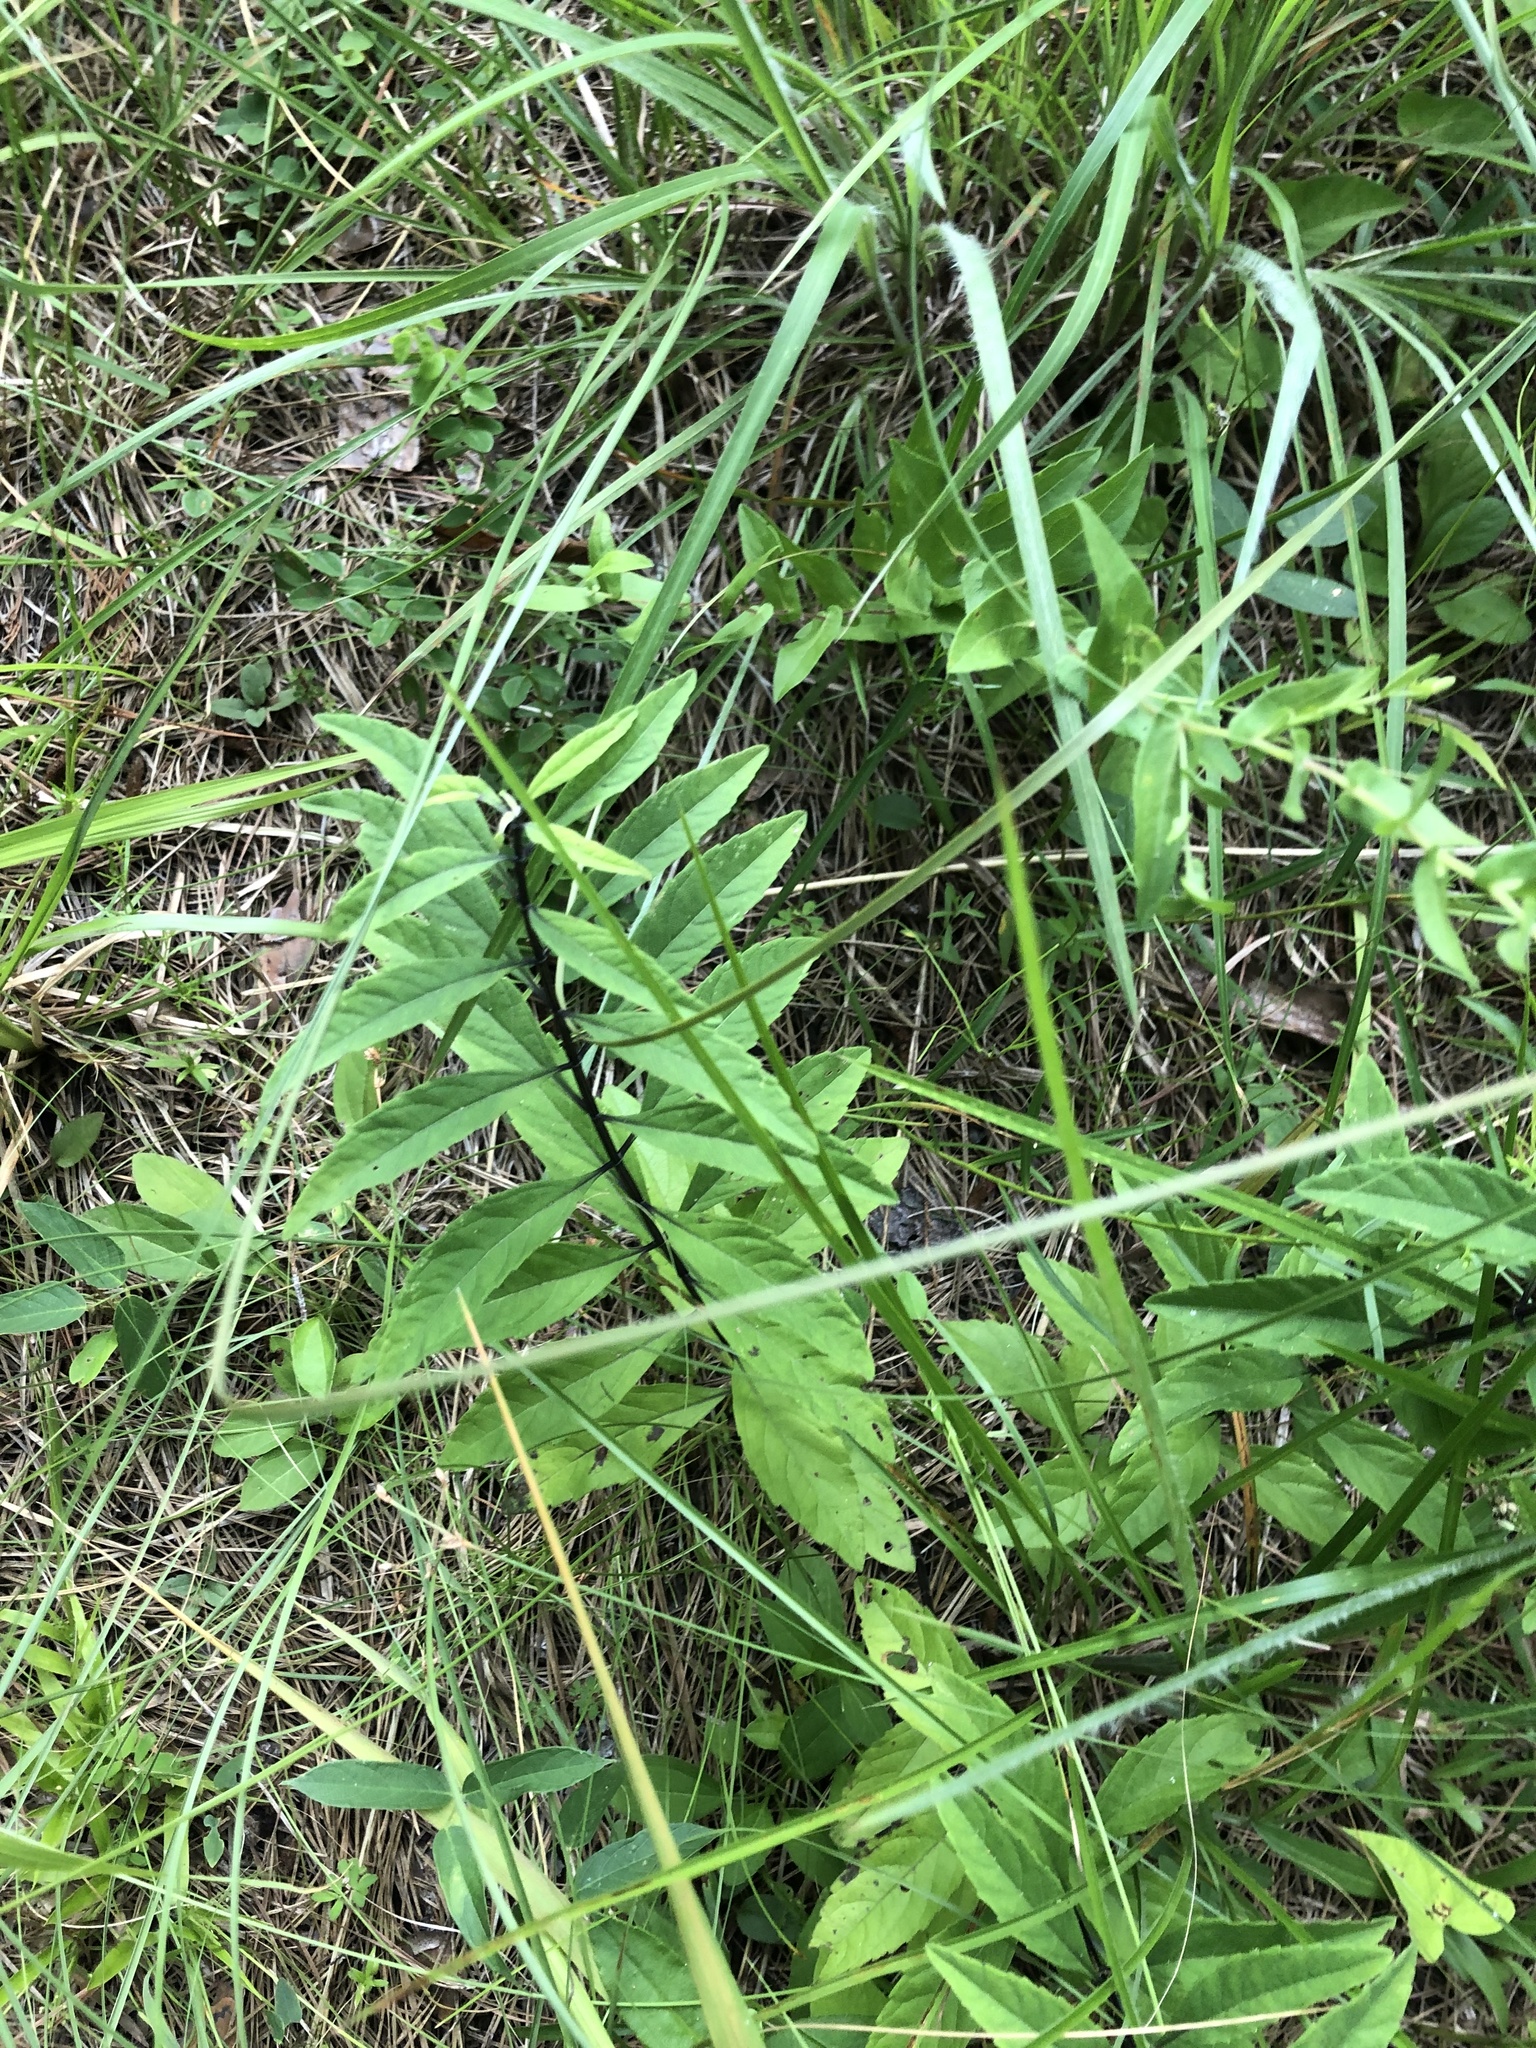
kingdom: Plantae
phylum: Tracheophyta
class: Magnoliopsida
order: Lamiales
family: Lamiaceae
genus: Salvia
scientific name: Salvia azurea
